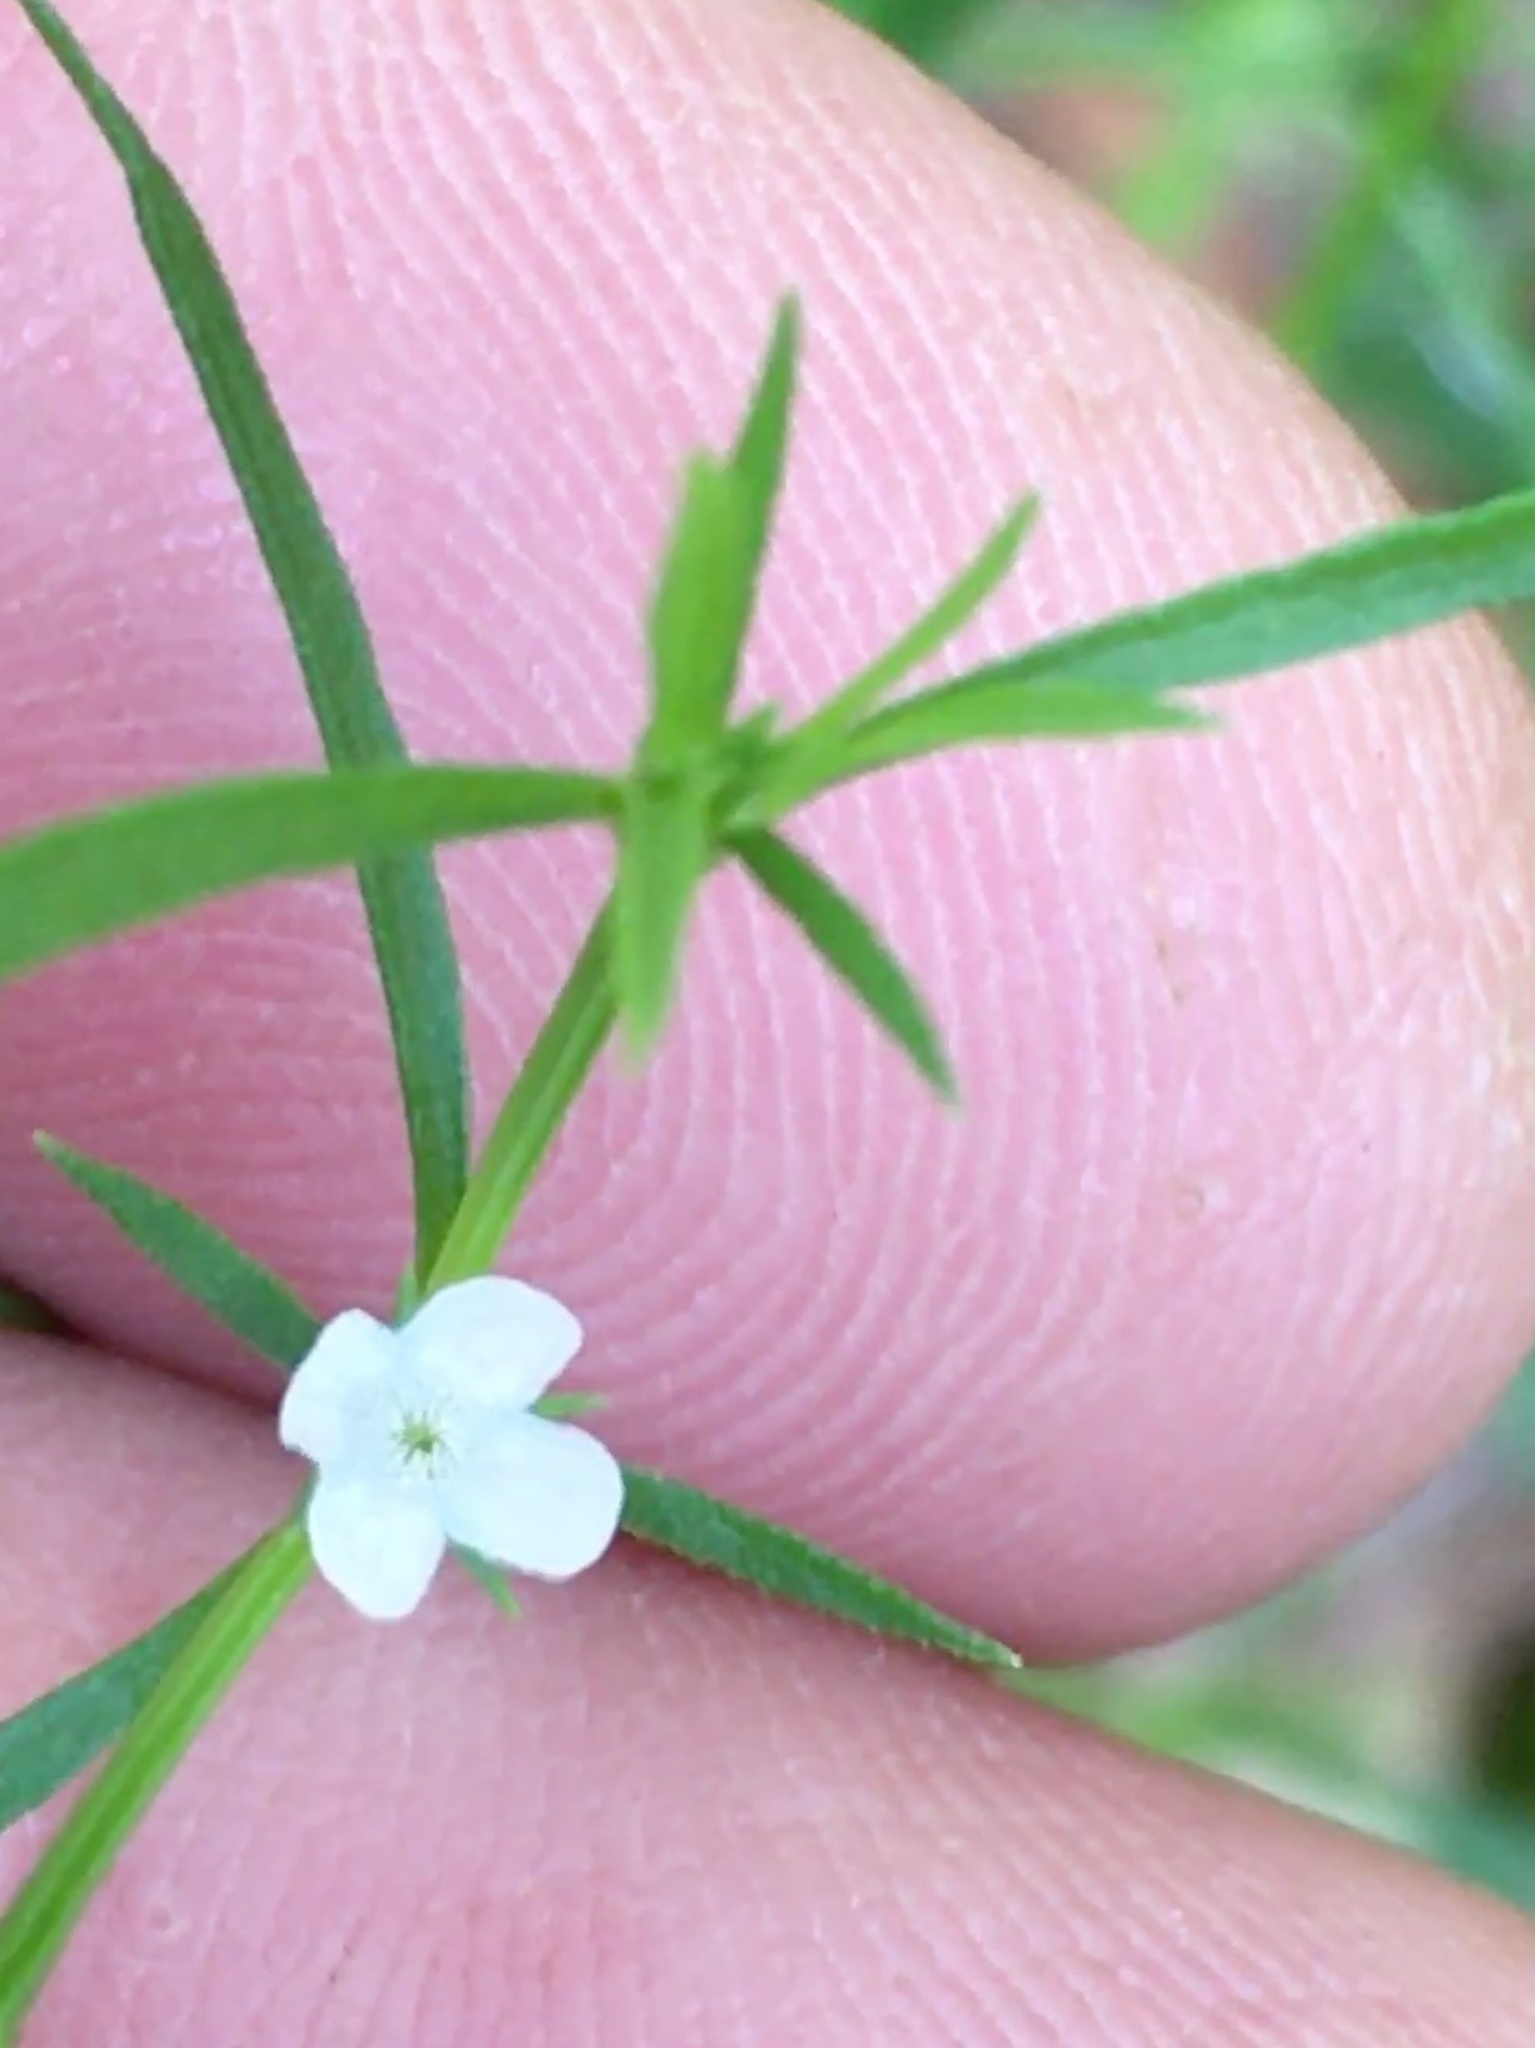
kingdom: Plantae
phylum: Tracheophyta
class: Magnoliopsida
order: Lamiales
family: Tetrachondraceae
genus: Polypremum
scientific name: Polypremum procumbens
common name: Juniper-leaf
